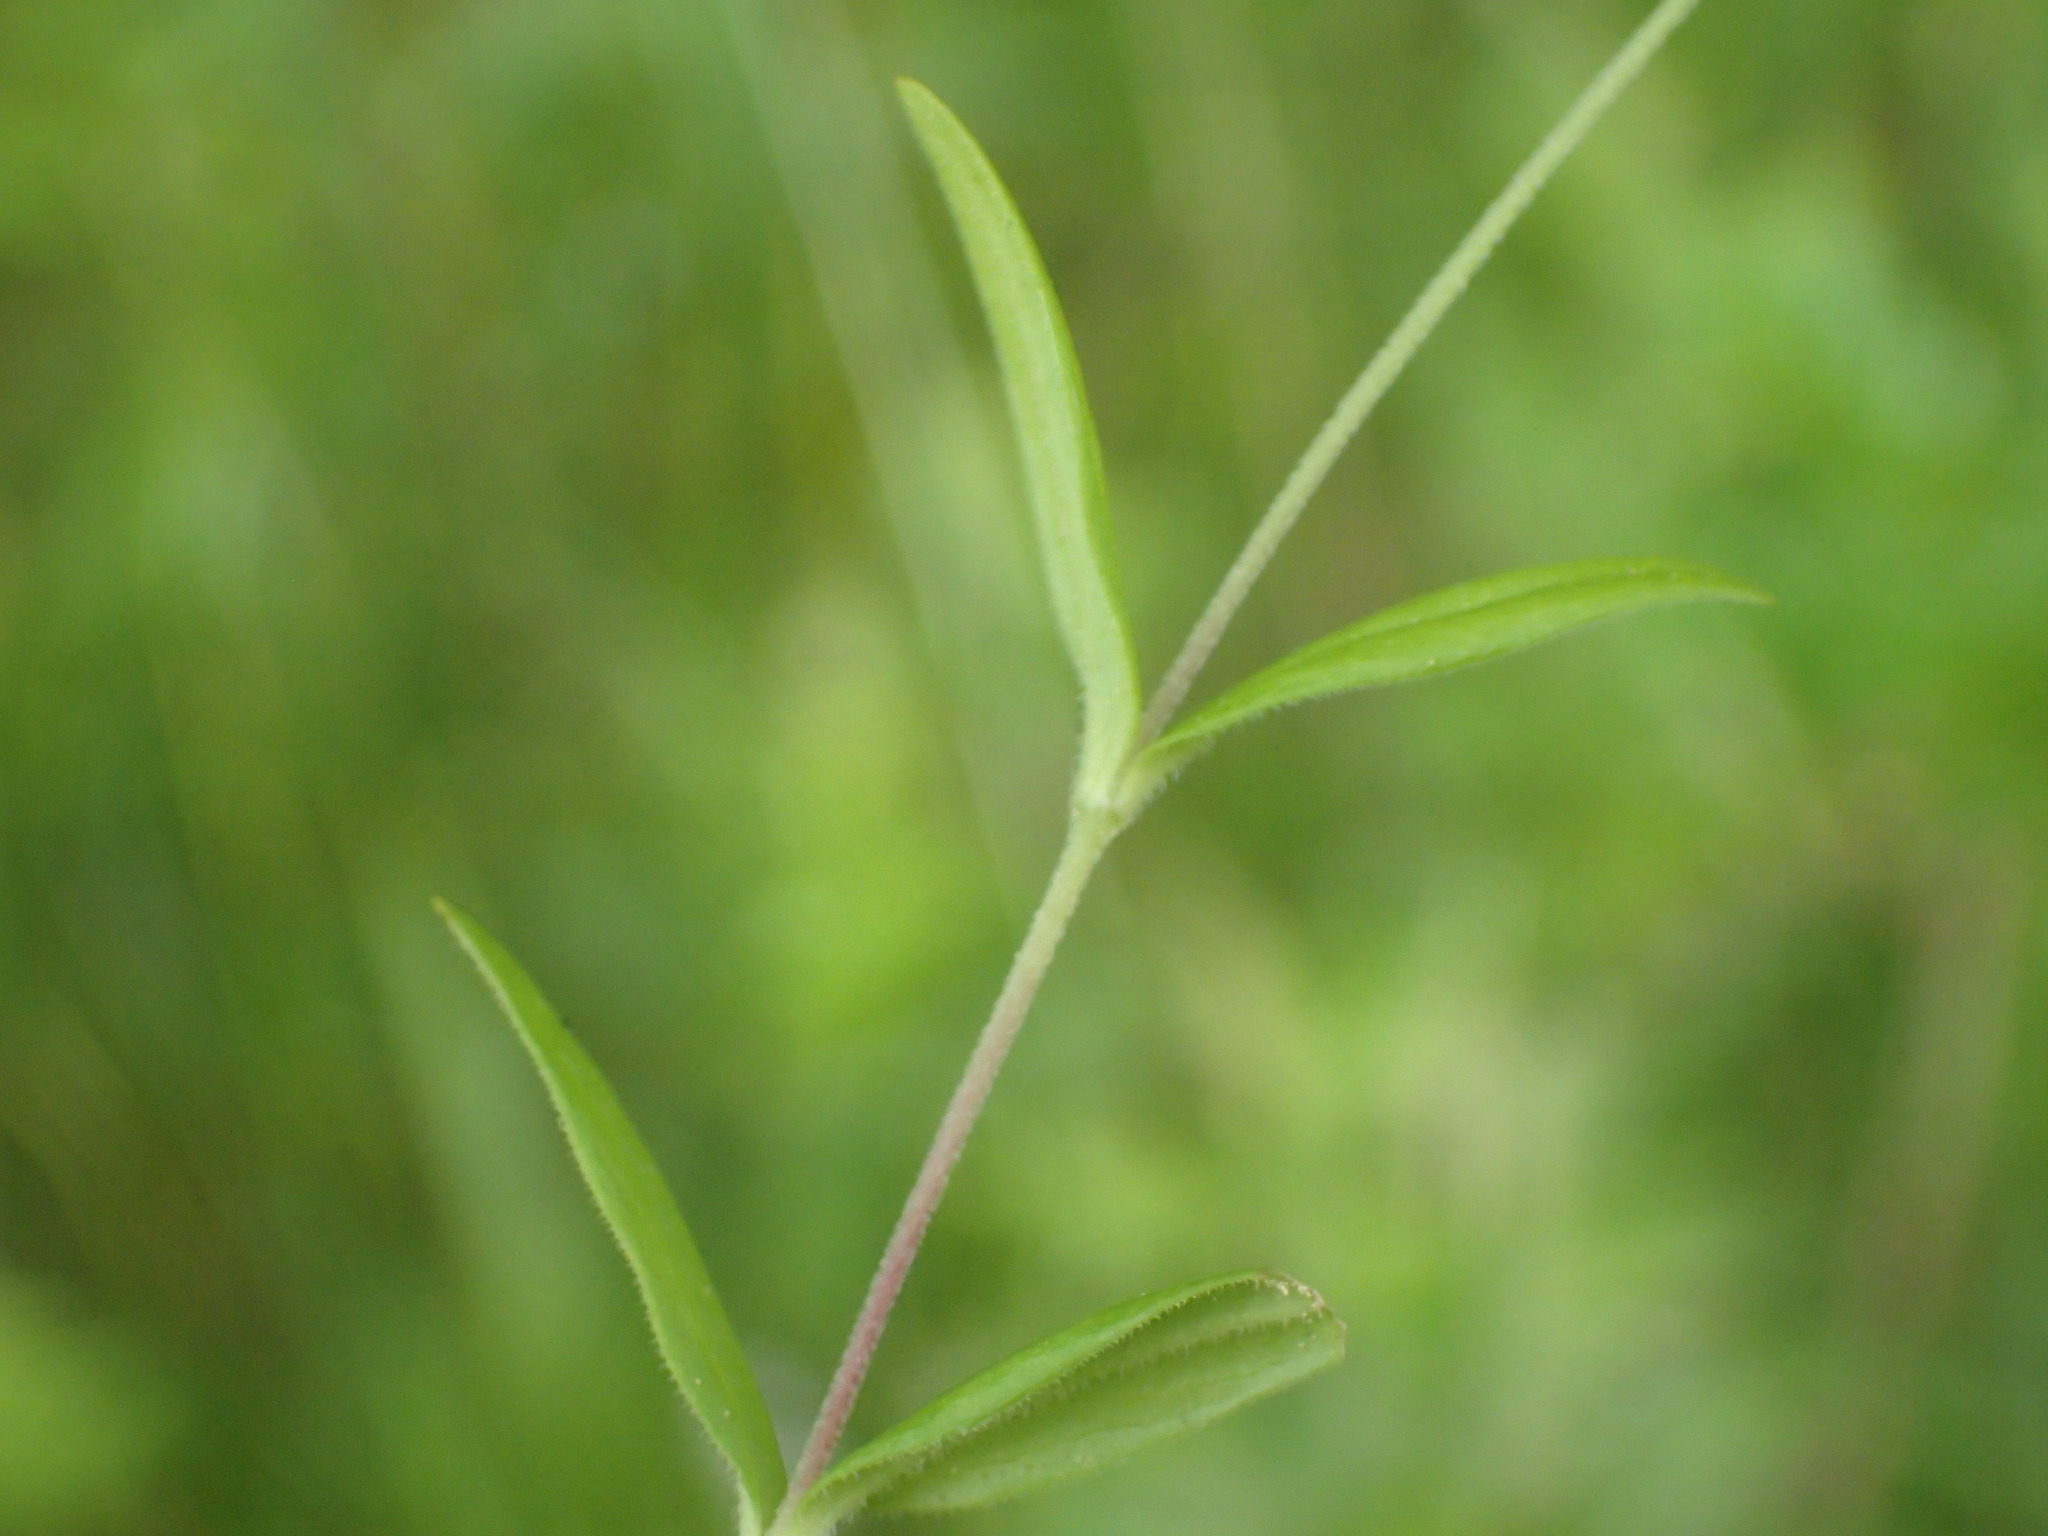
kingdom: Plantae
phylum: Tracheophyta
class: Magnoliopsida
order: Caryophyllales
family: Caryophyllaceae
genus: Moehringia
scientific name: Moehringia lateriflora
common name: Blunt-leaved sandwort
